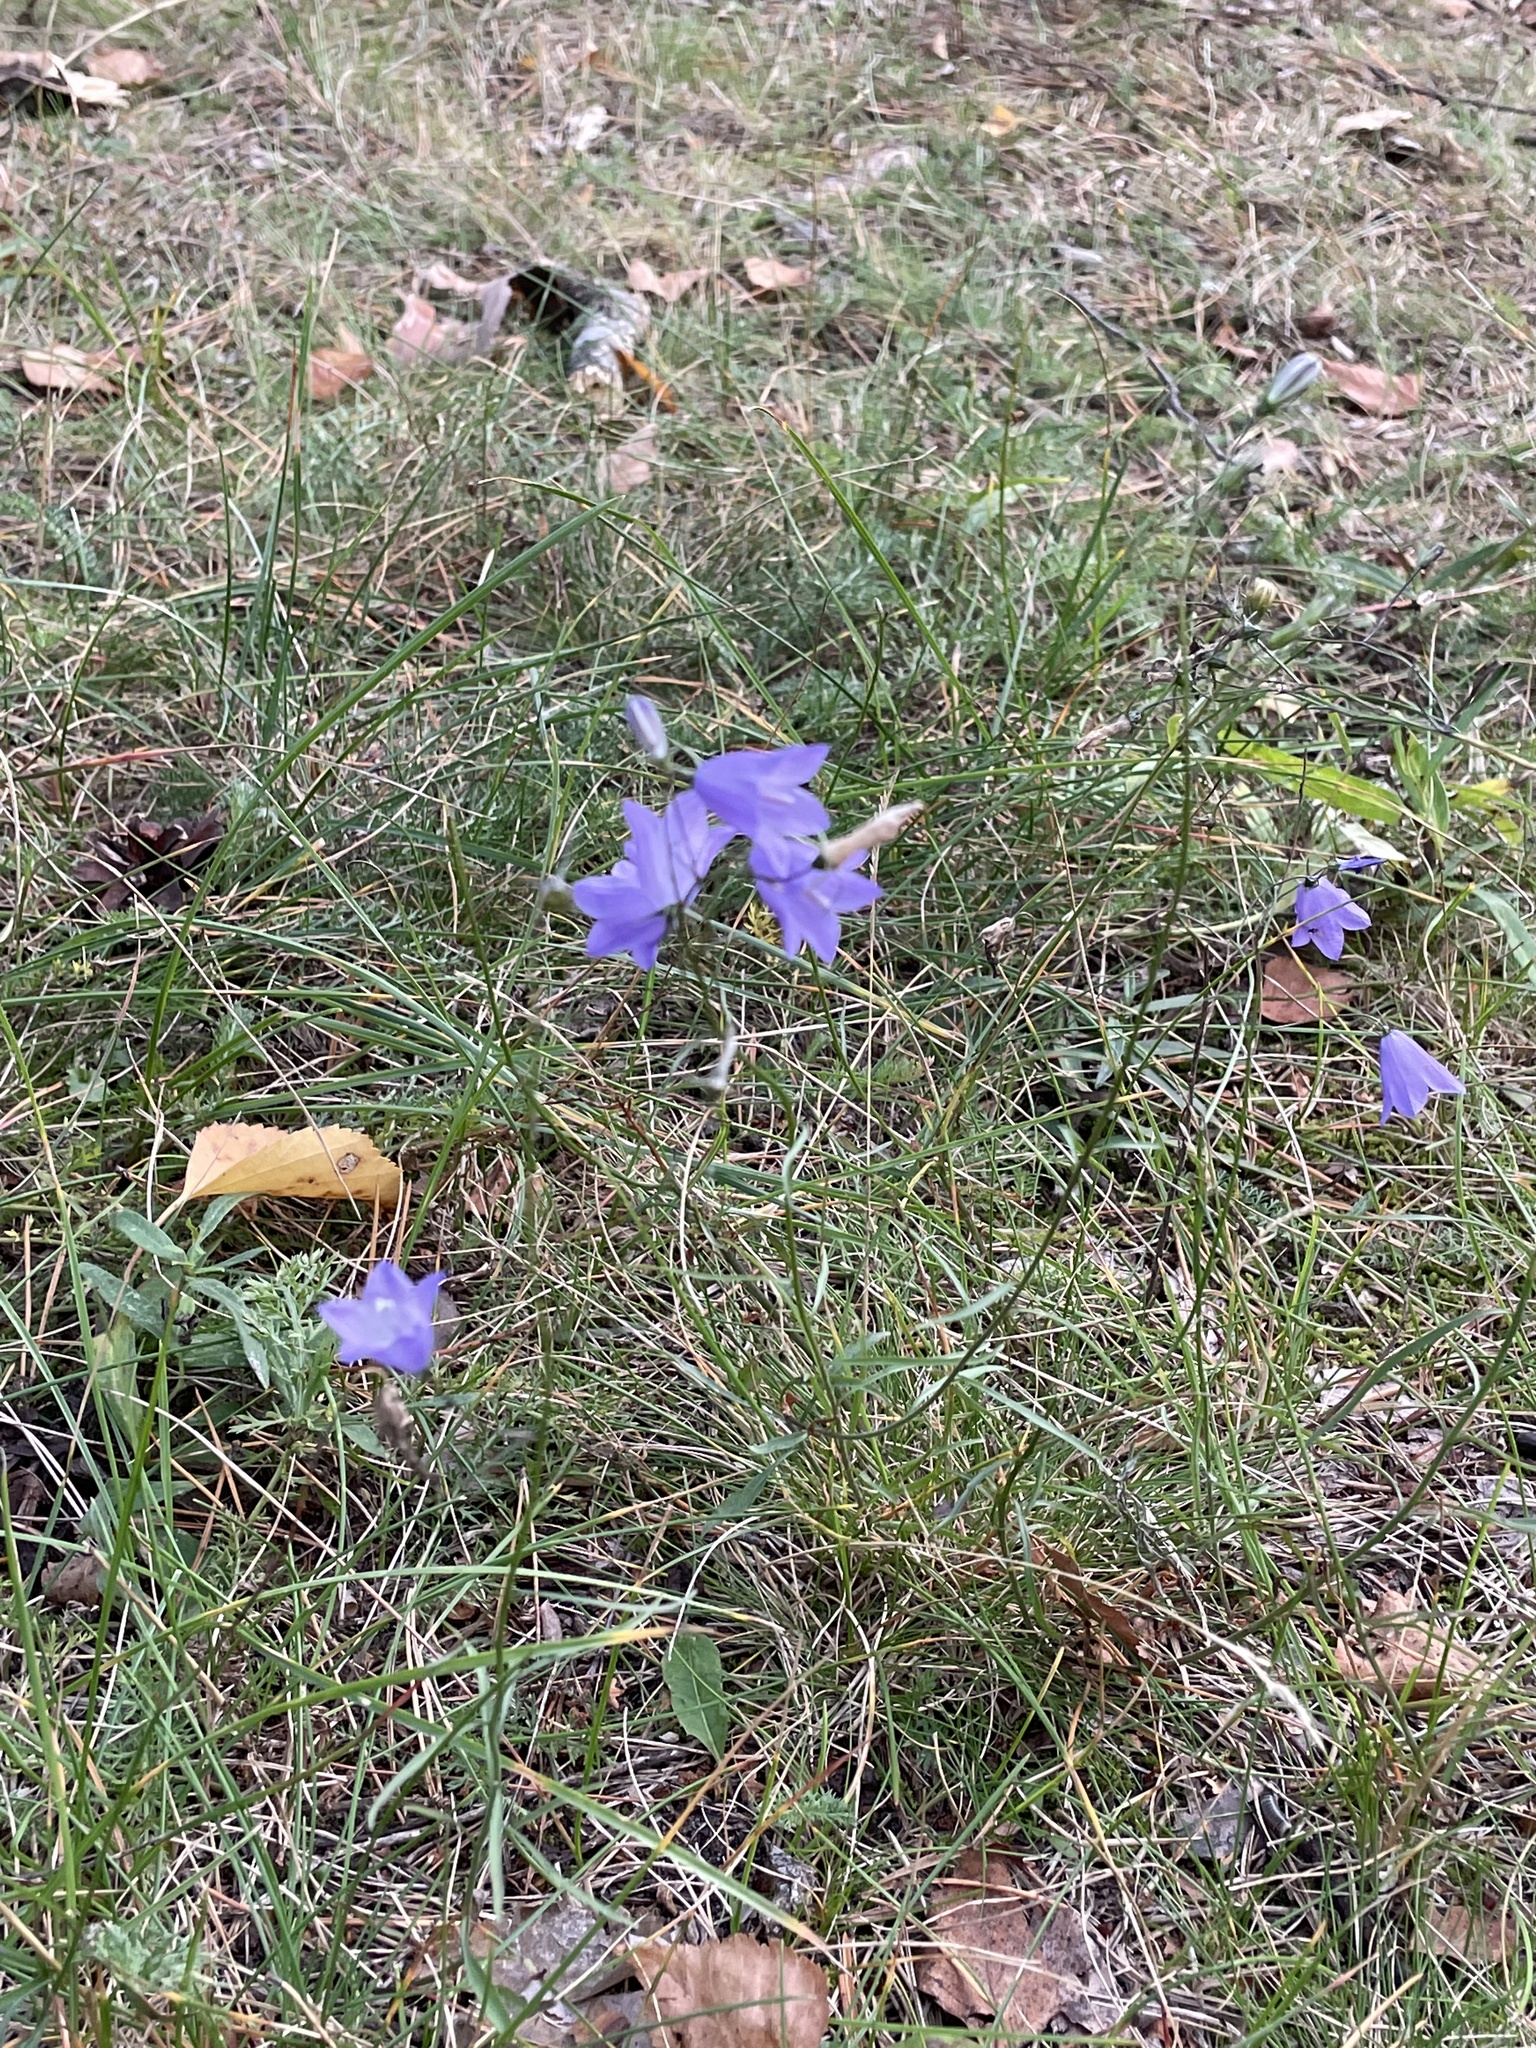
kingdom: Plantae
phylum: Tracheophyta
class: Magnoliopsida
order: Asterales
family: Campanulaceae
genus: Campanula
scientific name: Campanula rotundifolia
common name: Harebell
